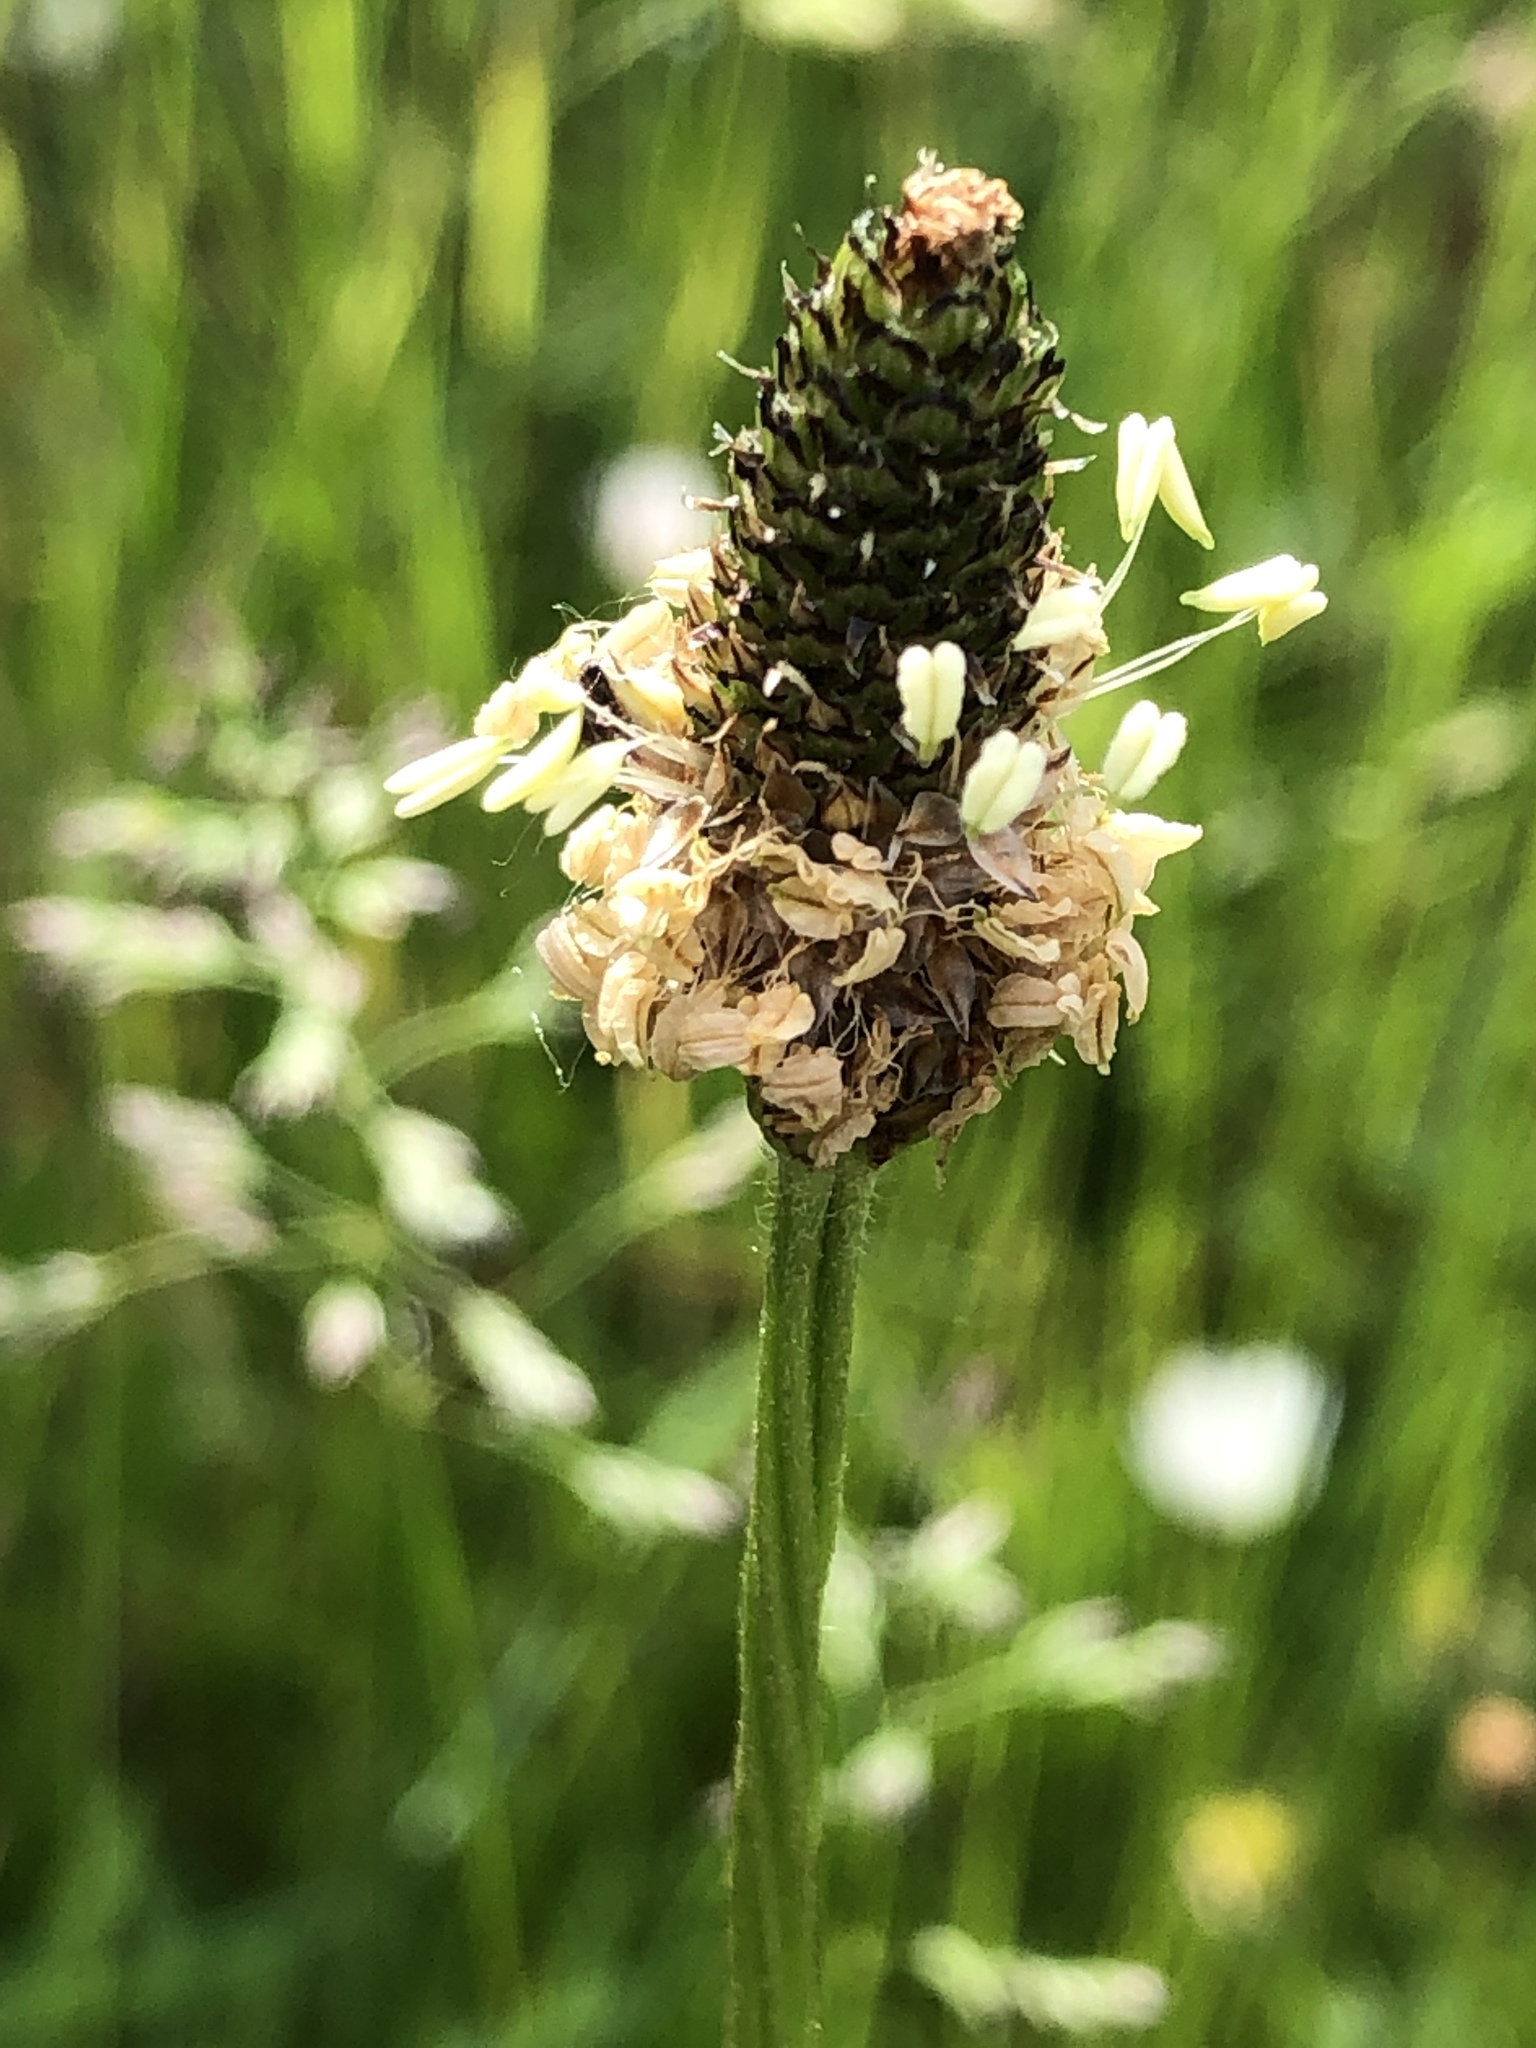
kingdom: Plantae
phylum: Tracheophyta
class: Magnoliopsida
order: Lamiales
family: Plantaginaceae
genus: Plantago
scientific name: Plantago lanceolata
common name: Ribwort plantain
